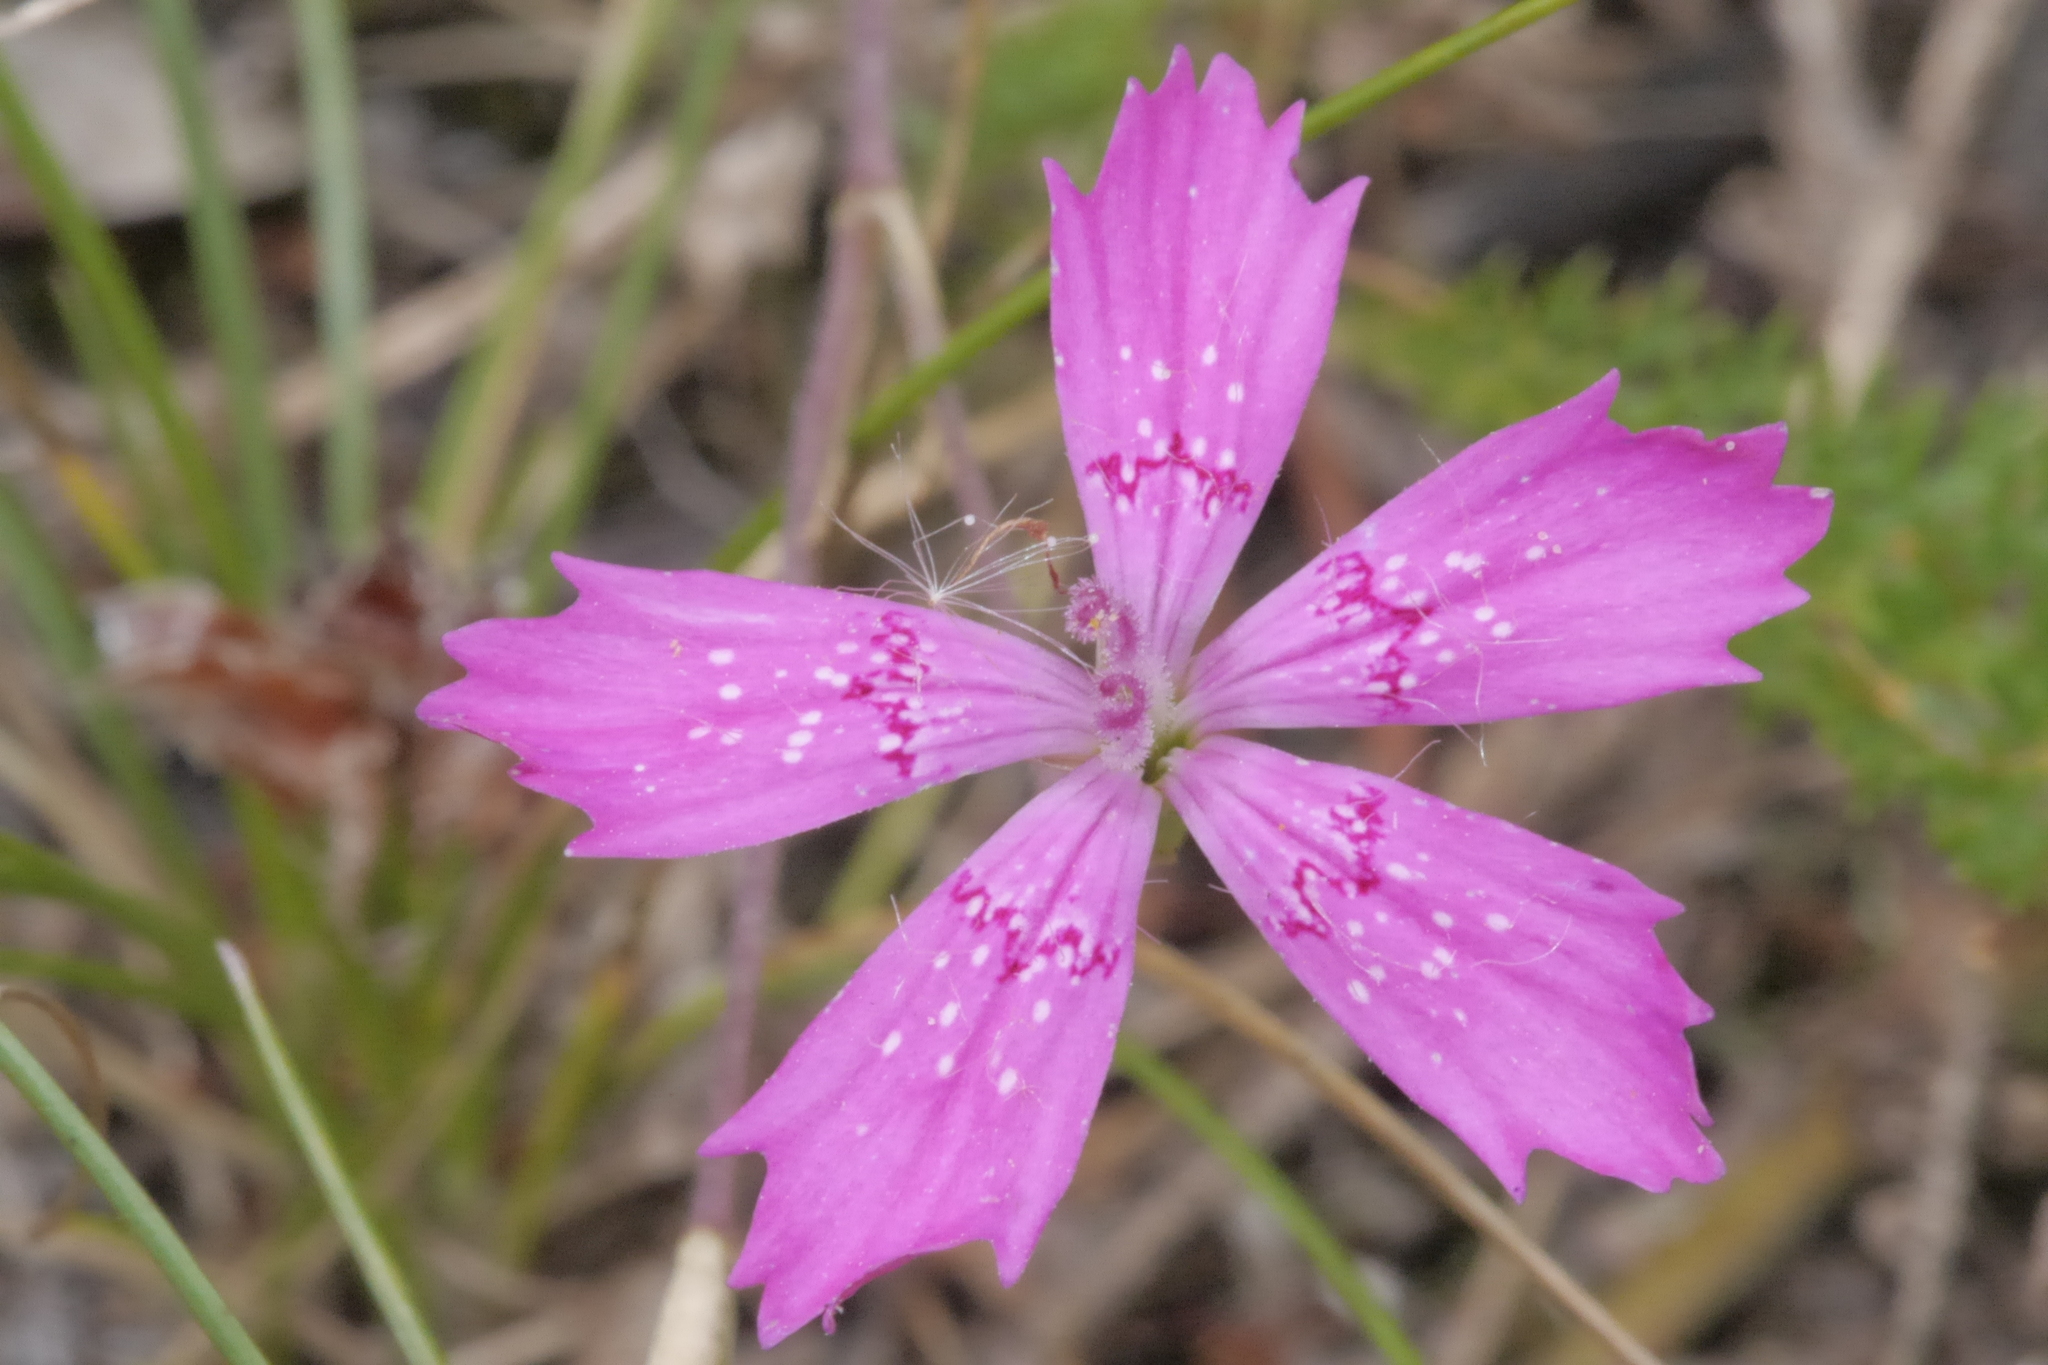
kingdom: Plantae
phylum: Tracheophyta
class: Magnoliopsida
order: Caryophyllales
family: Caryophyllaceae
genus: Dianthus
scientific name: Dianthus deltoides
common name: Maiden pink
